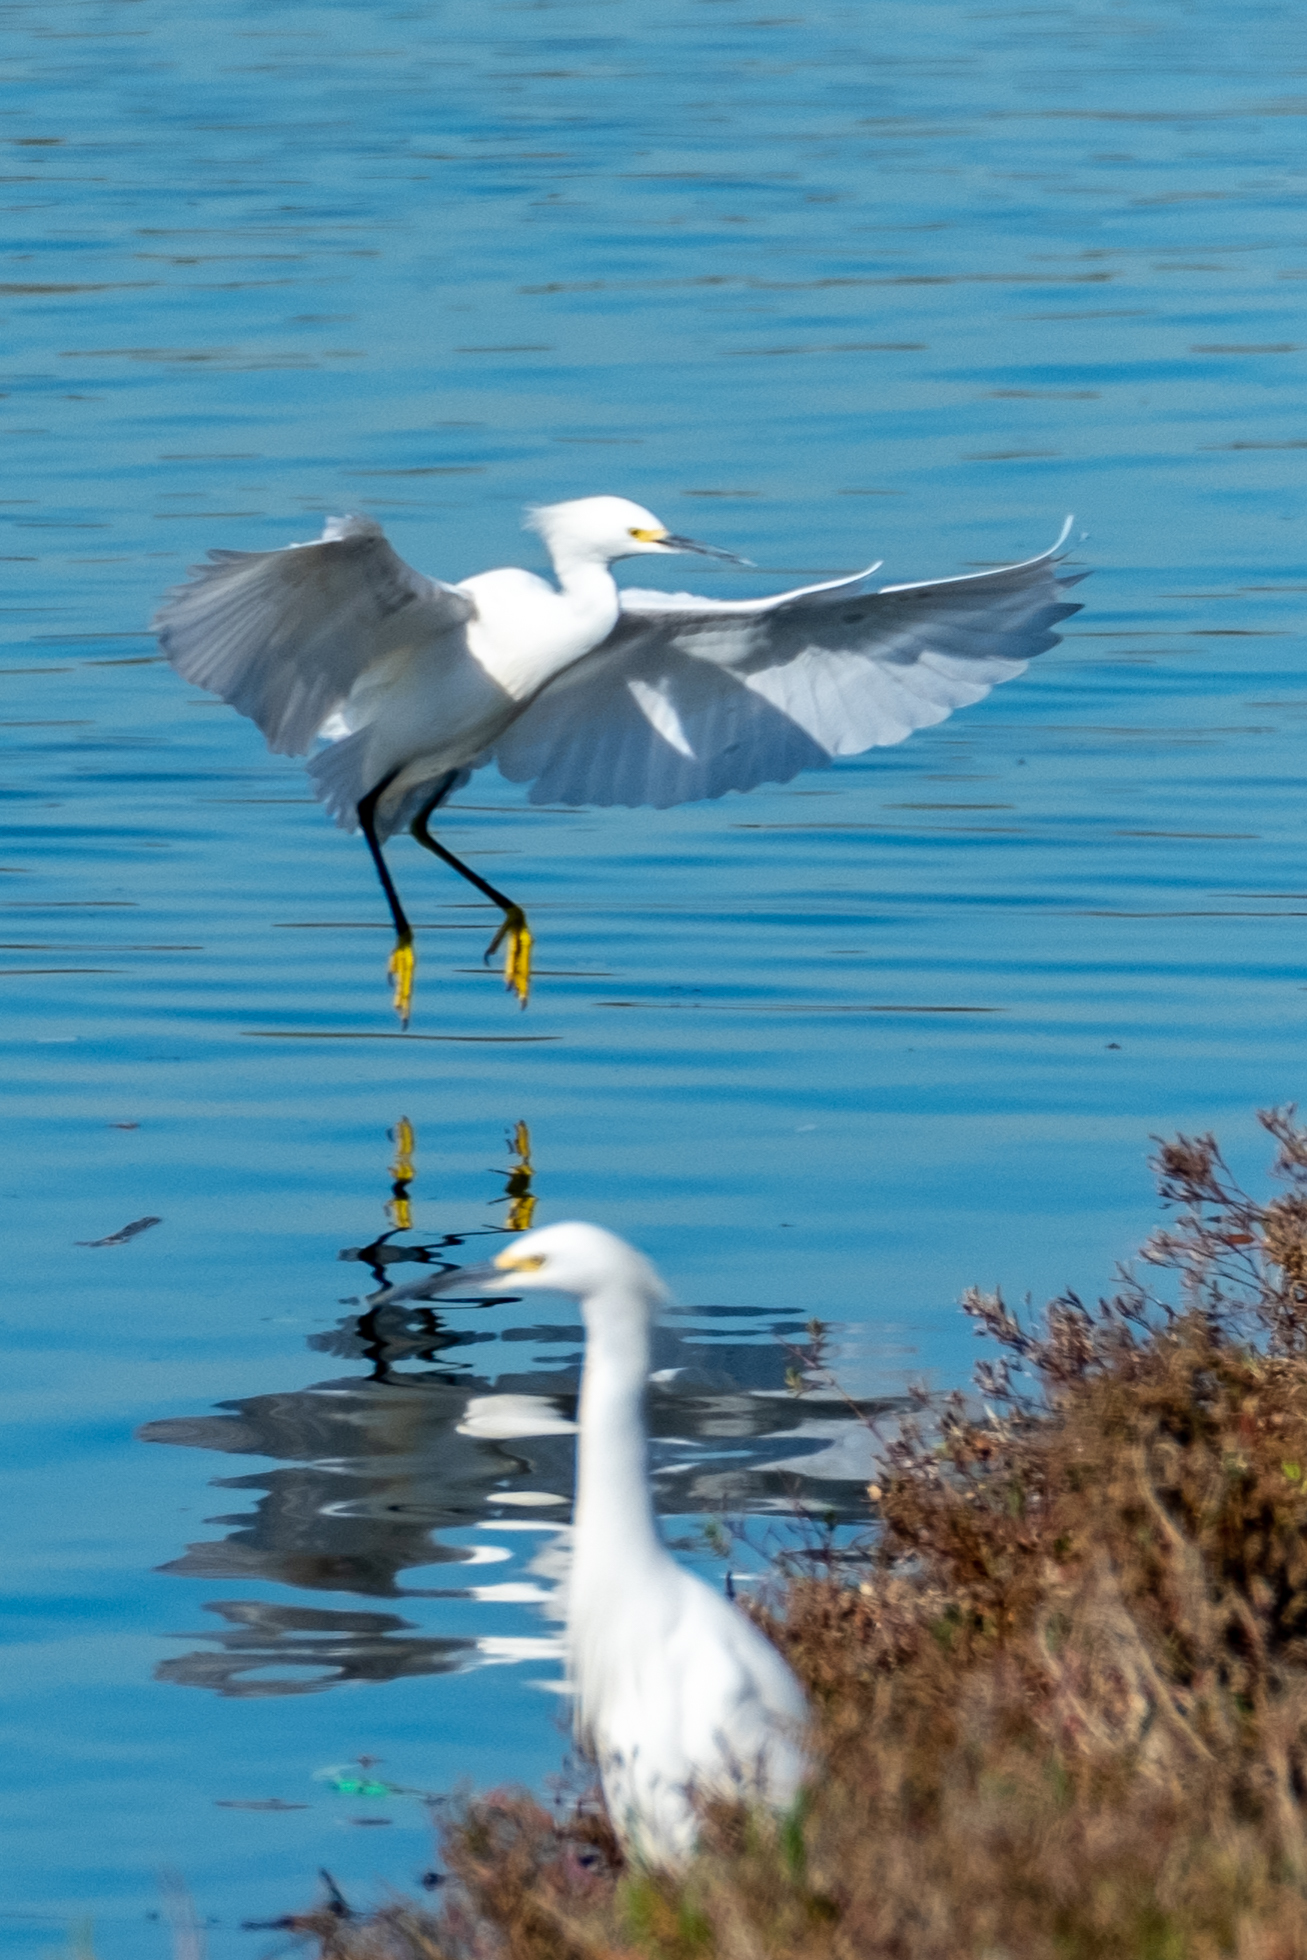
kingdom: Animalia
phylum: Chordata
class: Aves
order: Pelecaniformes
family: Ardeidae
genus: Egretta
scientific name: Egretta thula
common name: Snowy egret
